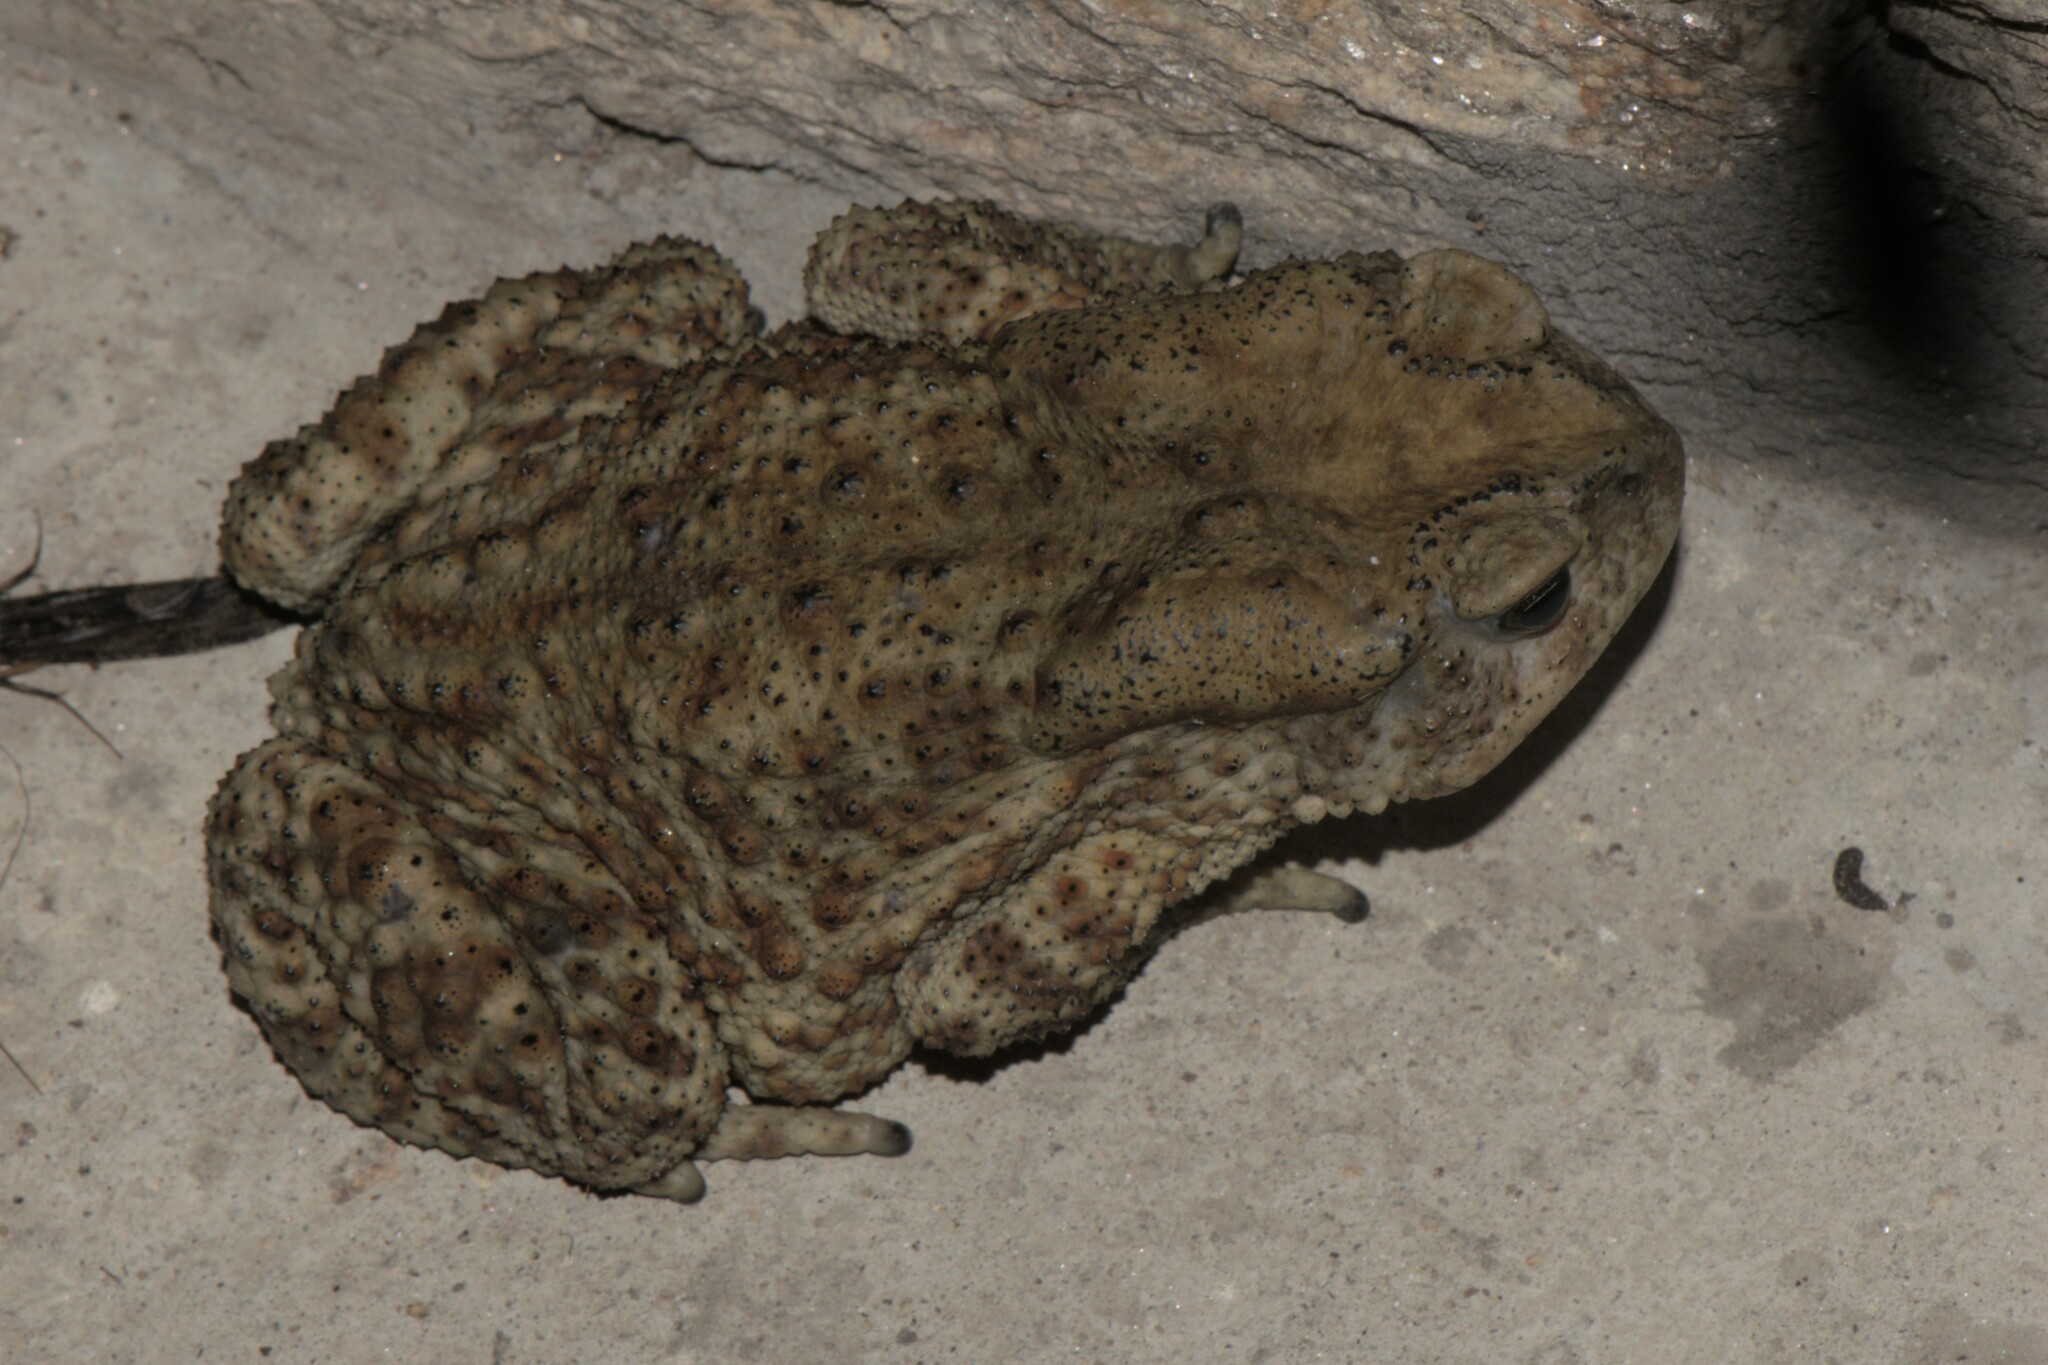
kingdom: Animalia
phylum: Chordata
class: Amphibia
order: Anura
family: Bufonidae
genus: Duttaphrynus
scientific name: Duttaphrynus himalayanus
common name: Günther's high altitude toad
